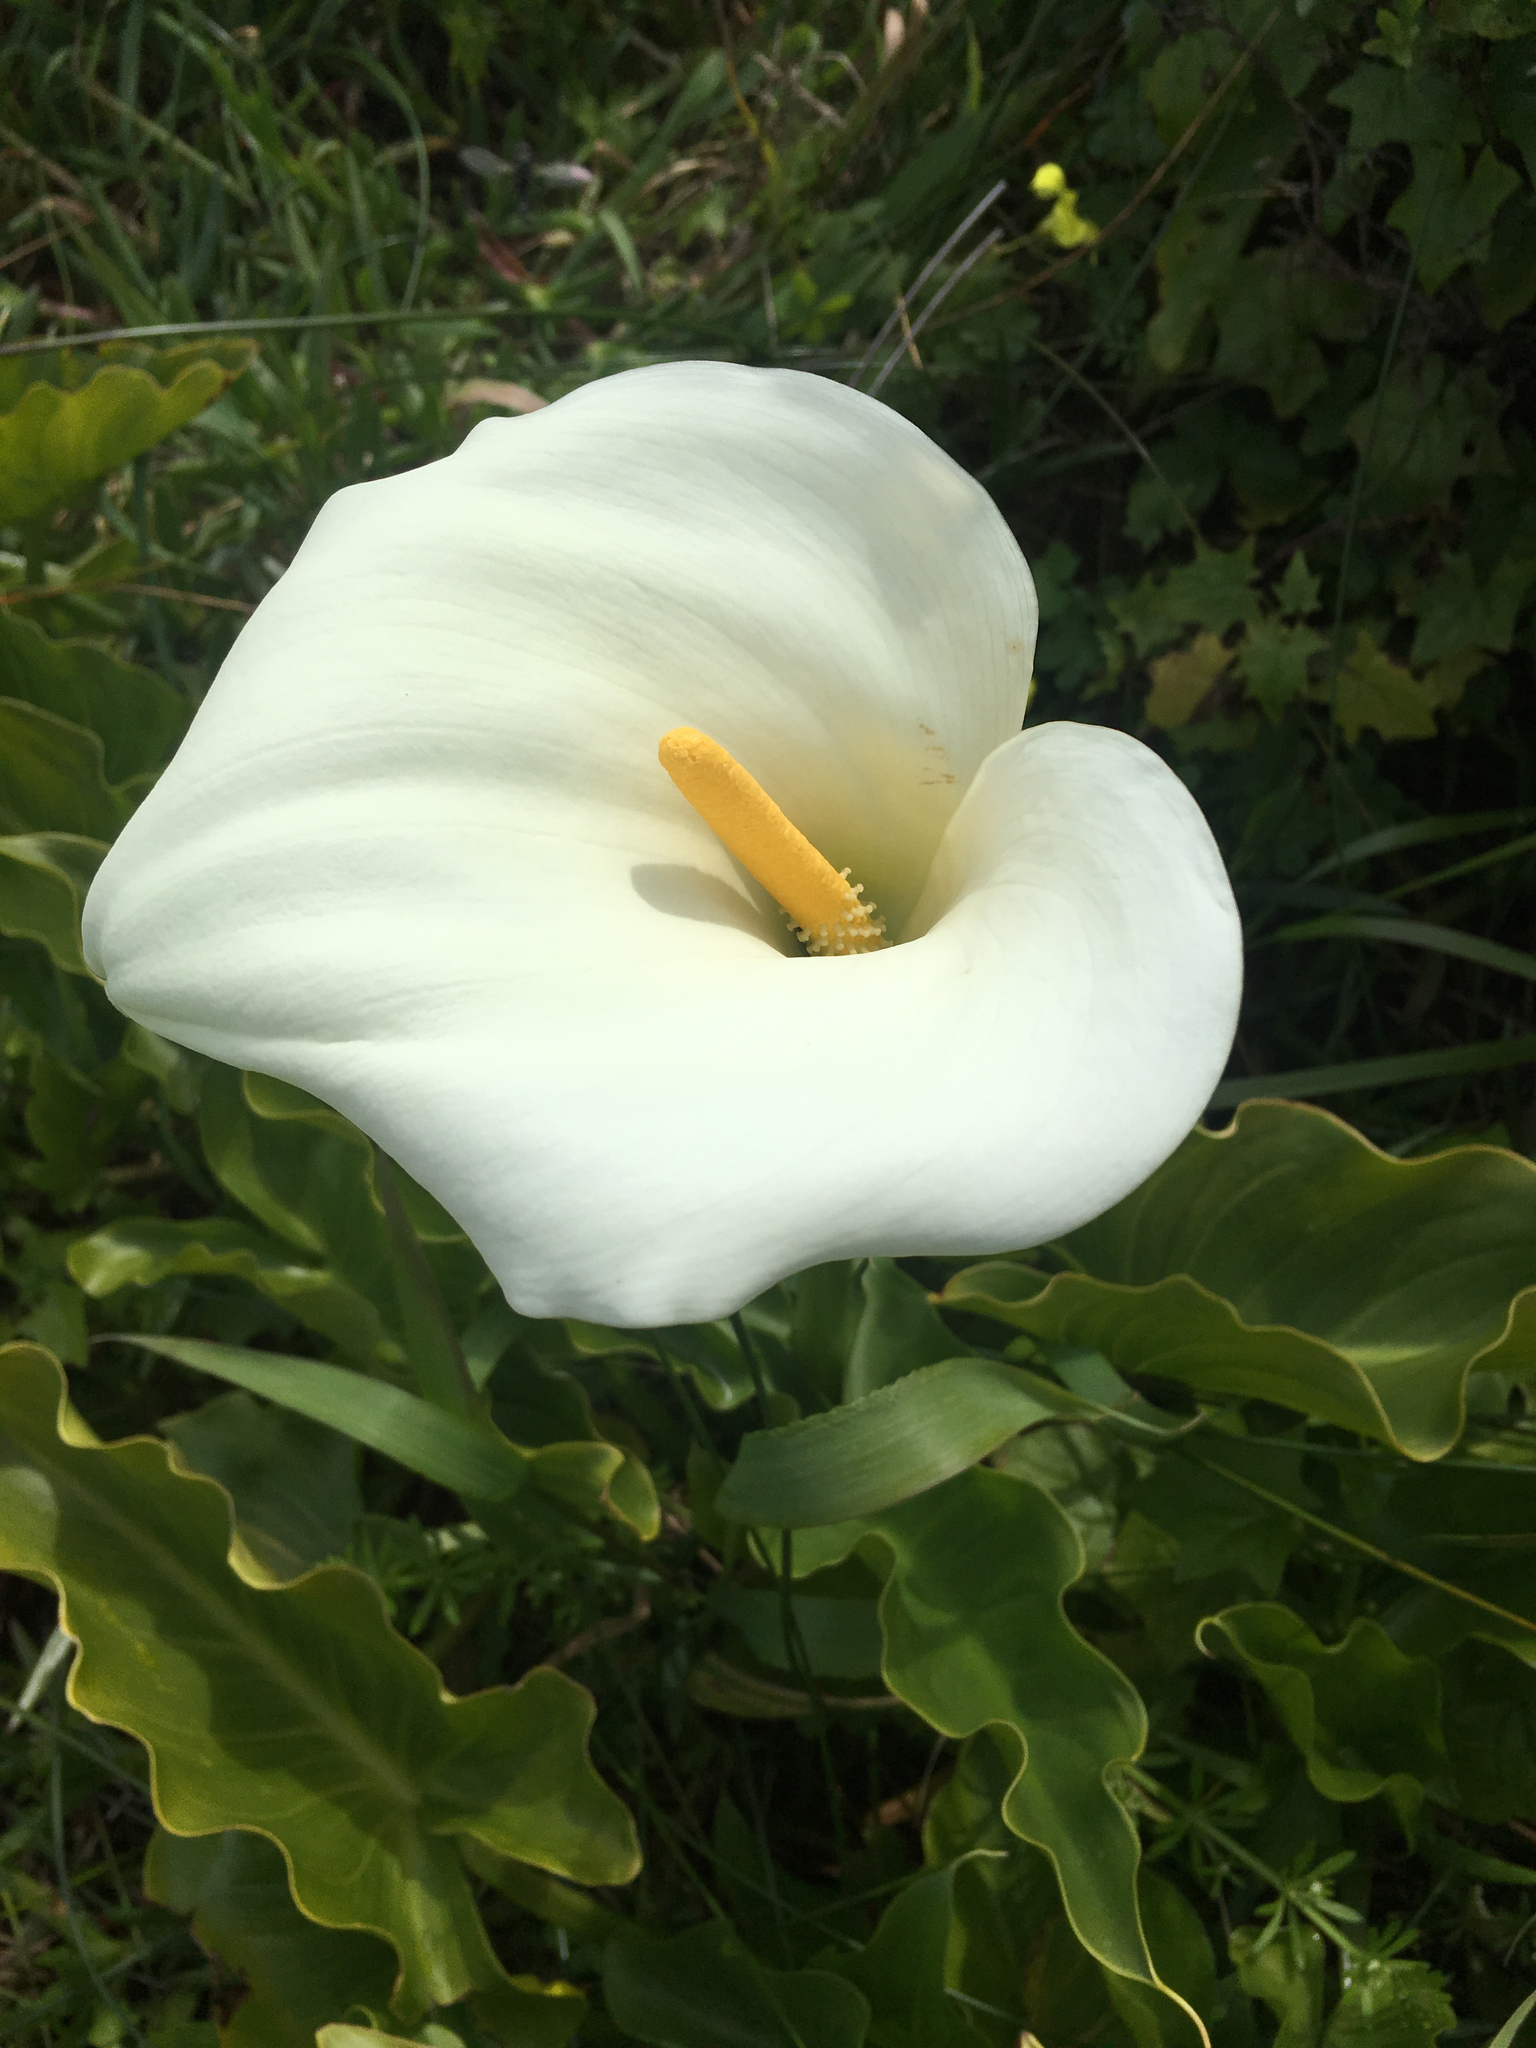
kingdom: Plantae
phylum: Tracheophyta
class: Liliopsida
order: Alismatales
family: Araceae
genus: Zantedeschia
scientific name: Zantedeschia aethiopica
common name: Altar-lily
